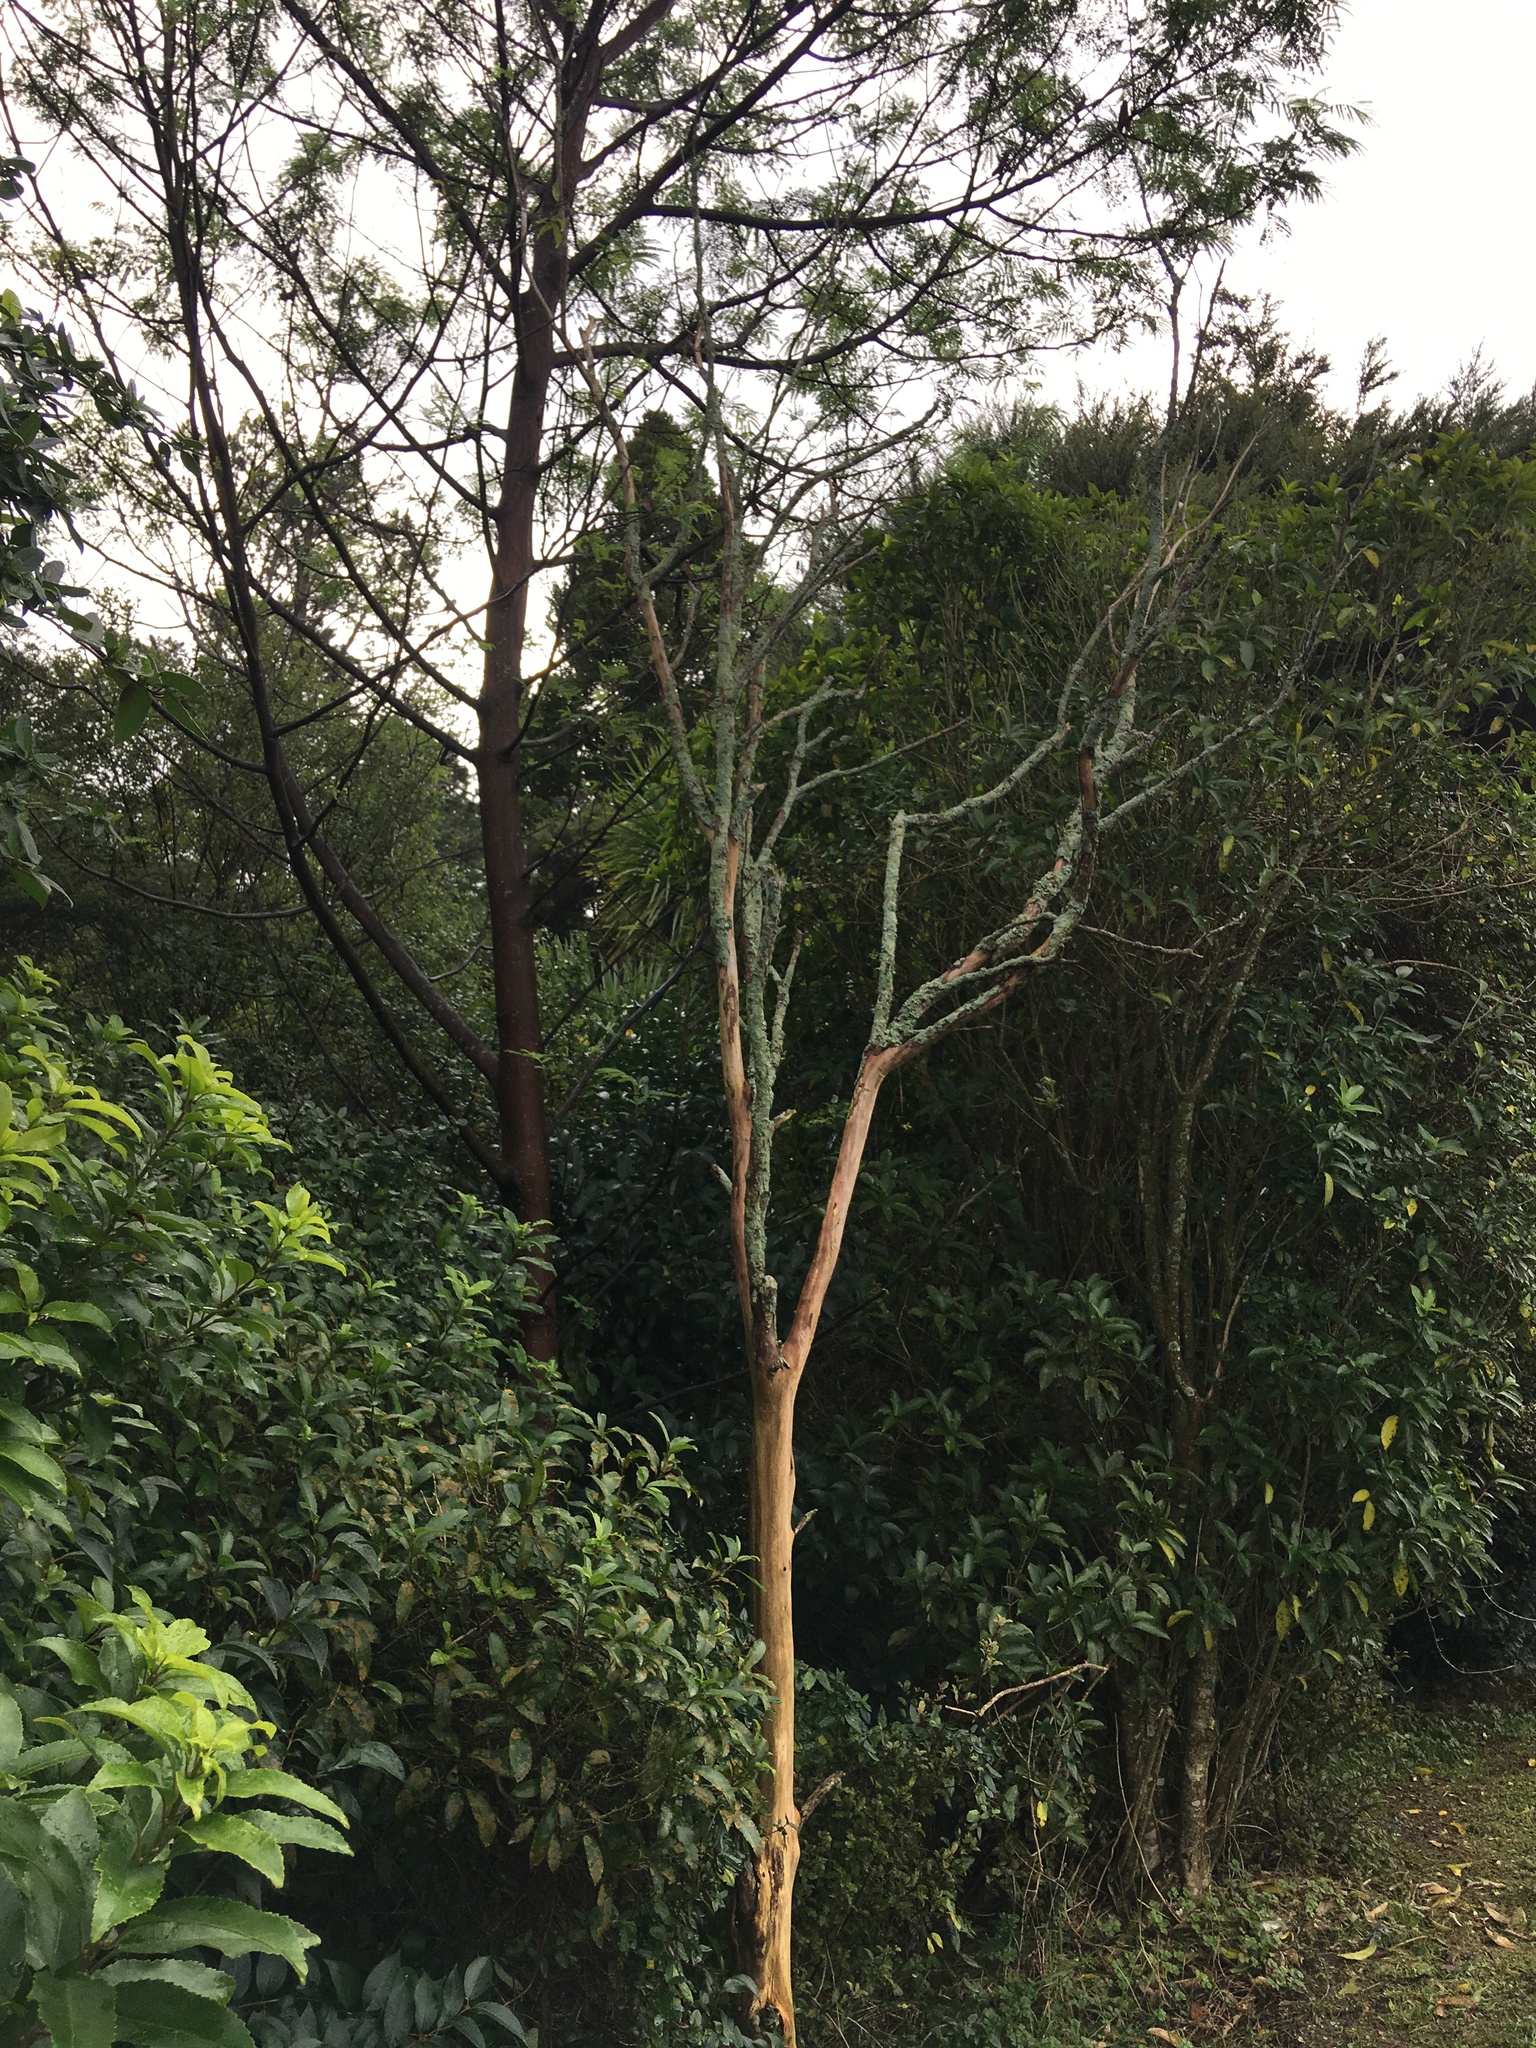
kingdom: Plantae
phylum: Tracheophyta
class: Magnoliopsida
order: Fabales
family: Fabaceae
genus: Paraserianthes
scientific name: Paraserianthes lophantha
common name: Plume albizia
